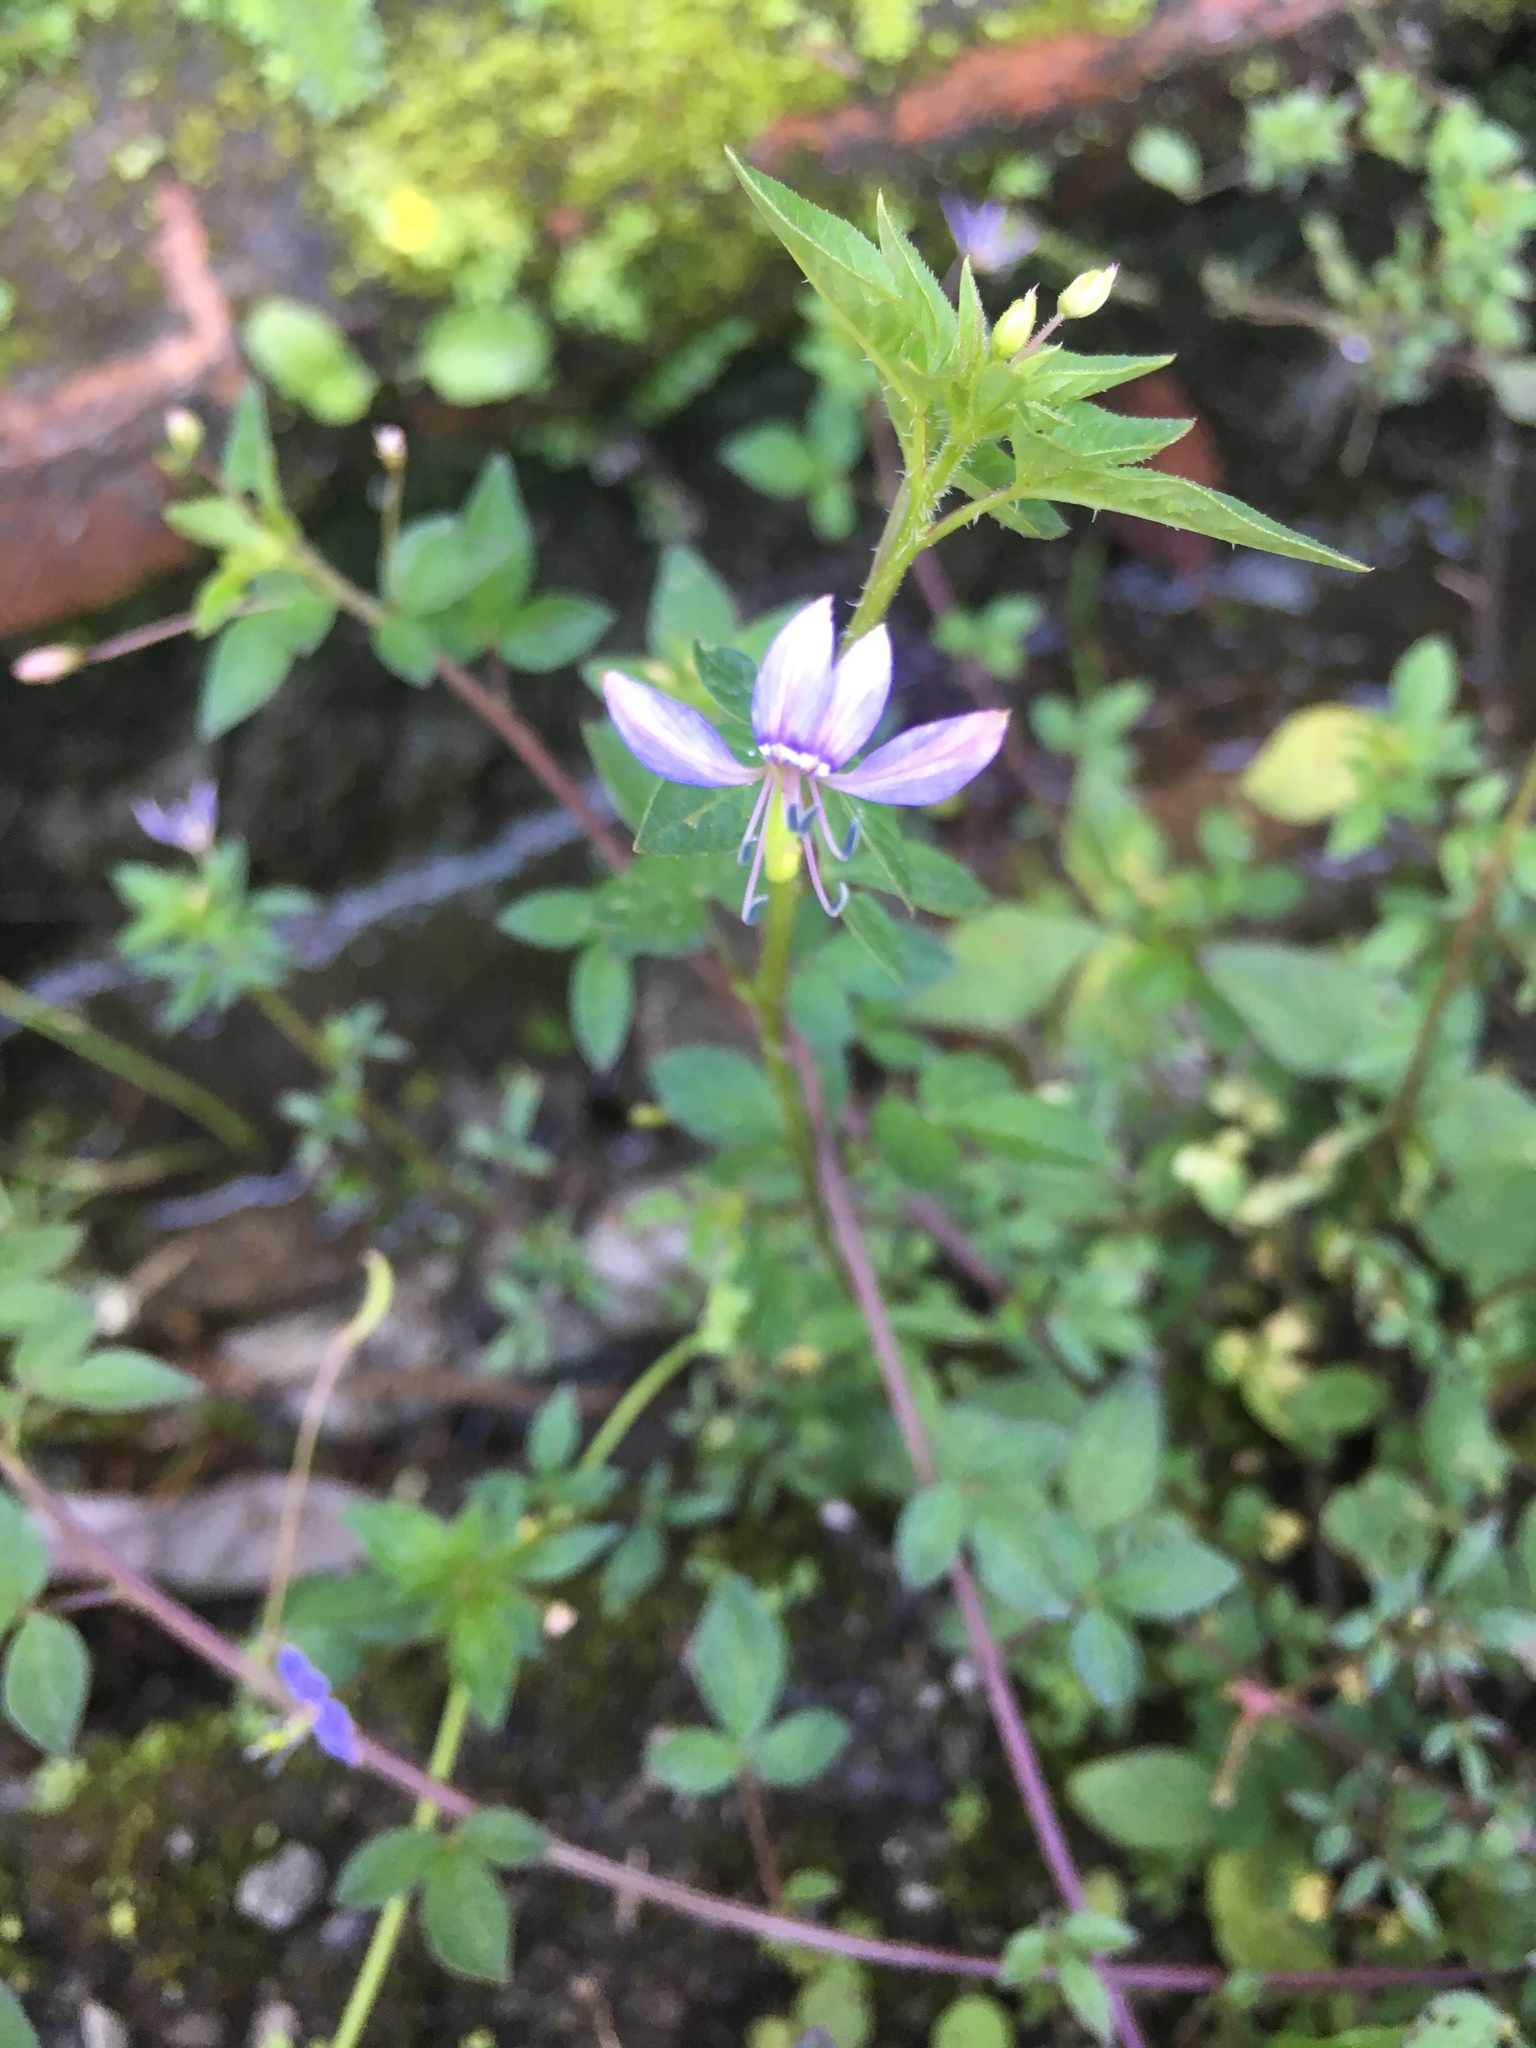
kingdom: Plantae
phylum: Tracheophyta
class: Magnoliopsida
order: Brassicales
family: Cleomaceae
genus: Sieruela
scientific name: Sieruela rutidosperma
